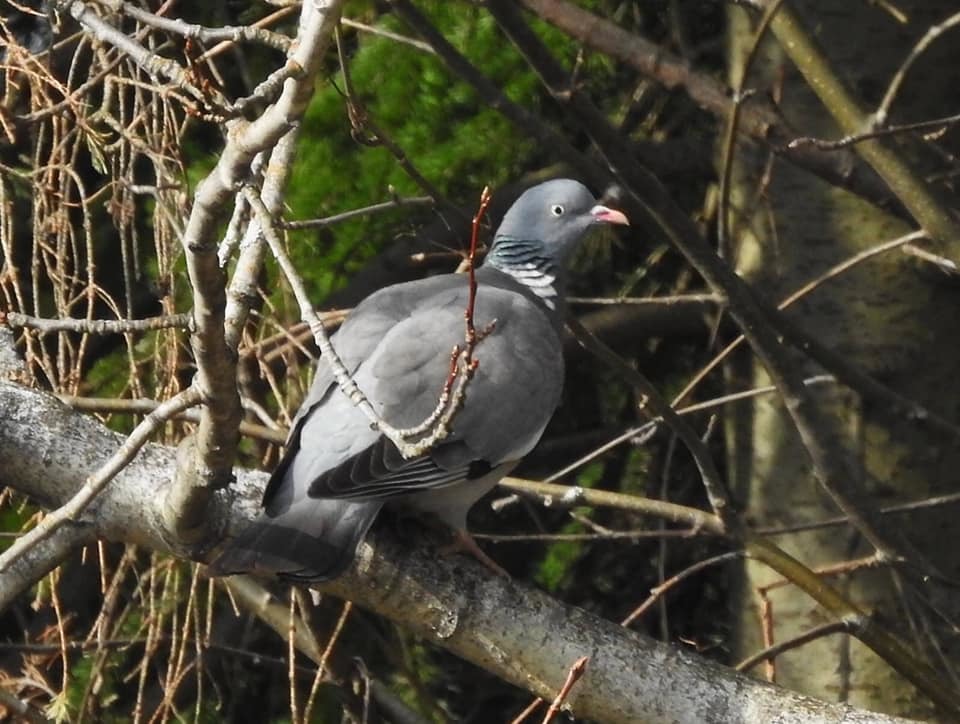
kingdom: Animalia
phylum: Chordata
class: Aves
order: Columbiformes
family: Columbidae
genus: Columba
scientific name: Columba palumbus
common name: Common wood pigeon
